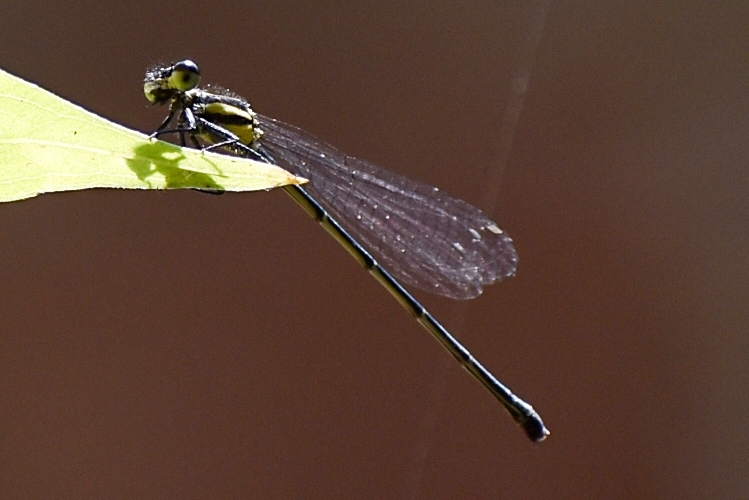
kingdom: Animalia
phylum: Arthropoda
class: Insecta
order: Odonata
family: Platycnemididae
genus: Onychargia
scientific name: Onychargia atrocyana
